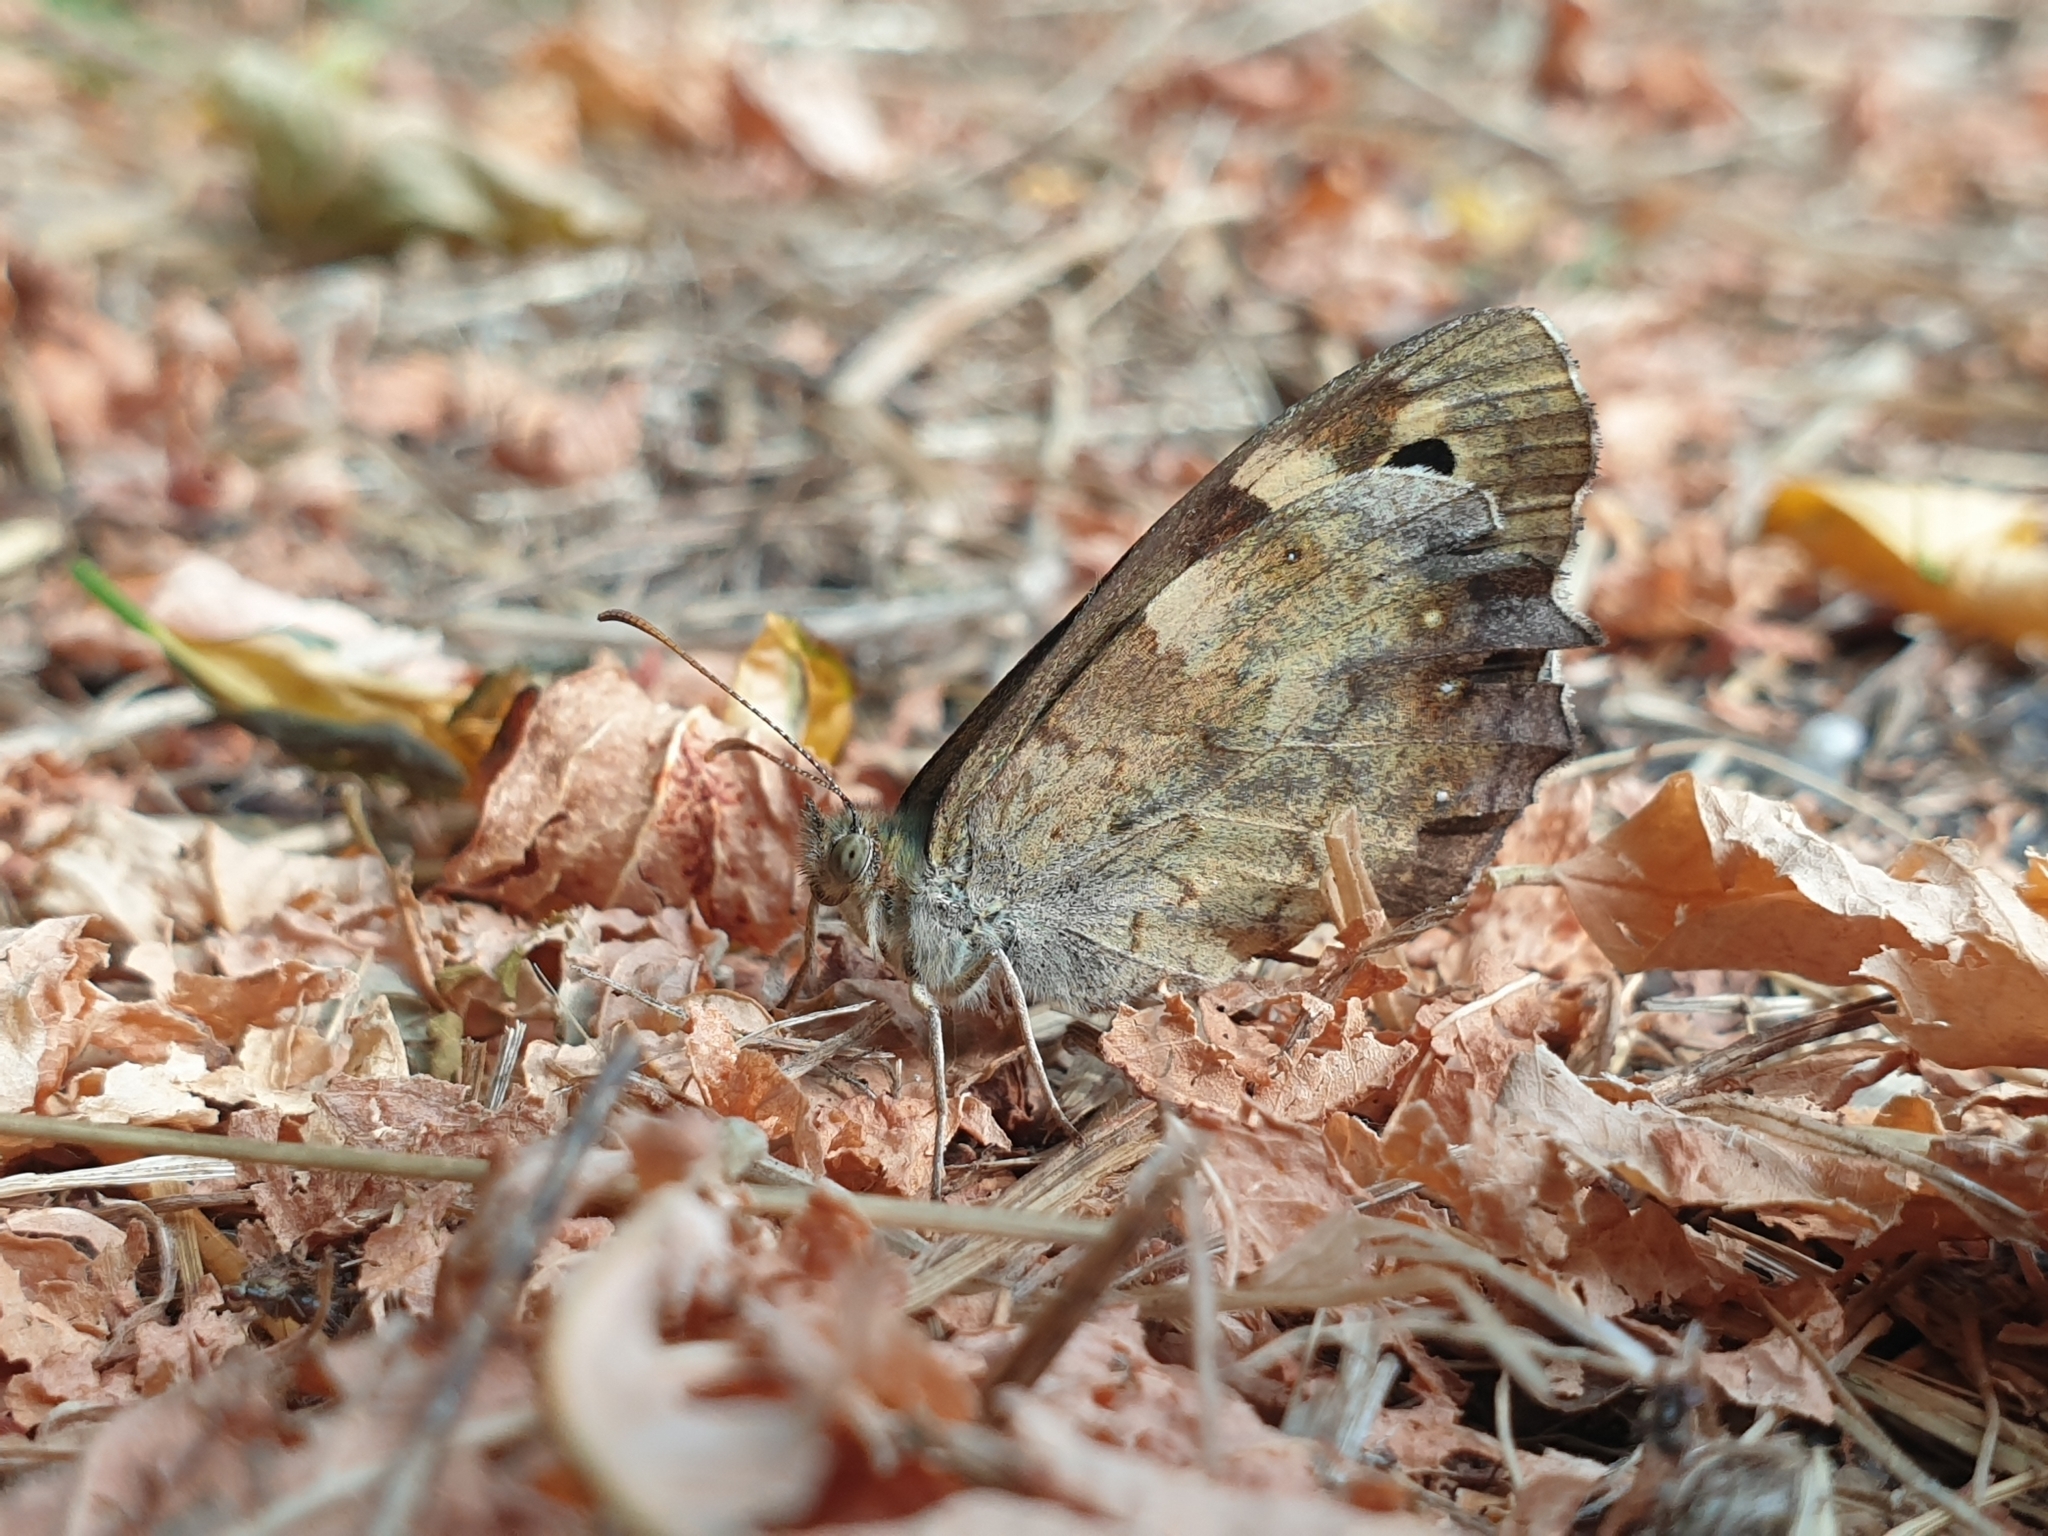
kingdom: Animalia
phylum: Arthropoda
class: Insecta
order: Lepidoptera
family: Nymphalidae
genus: Pararge
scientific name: Pararge aegeria
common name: Speckled wood
